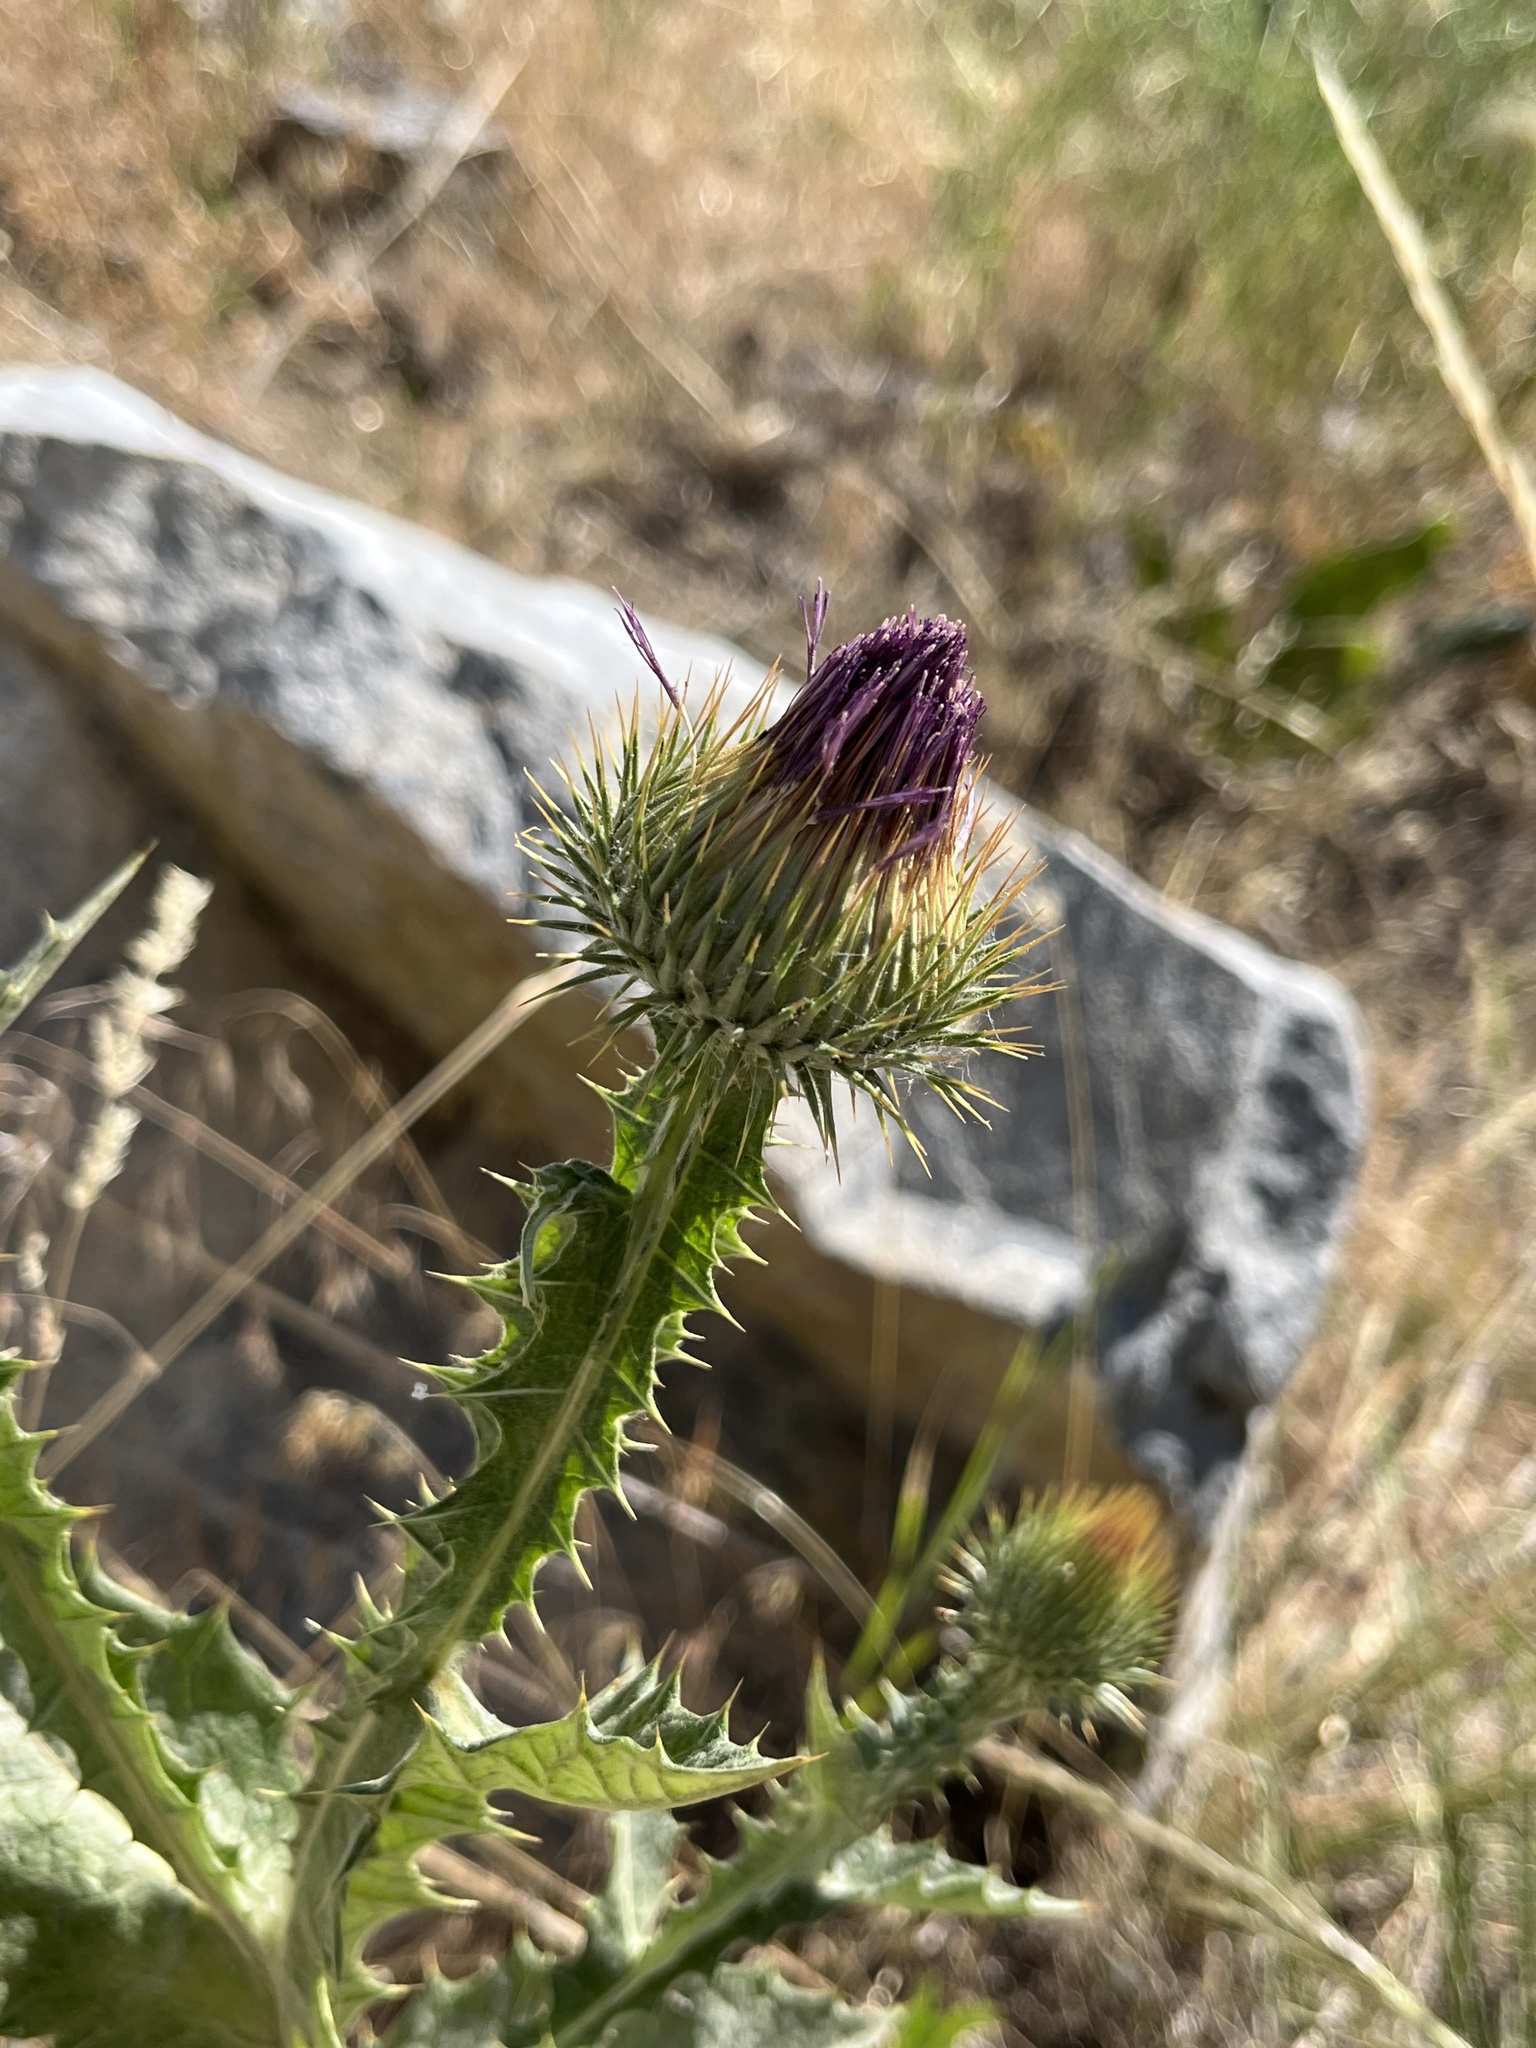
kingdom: Plantae
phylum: Tracheophyta
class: Magnoliopsida
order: Asterales
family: Asteraceae
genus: Onopordum
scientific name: Onopordum acanthium
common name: Scotch thistle
